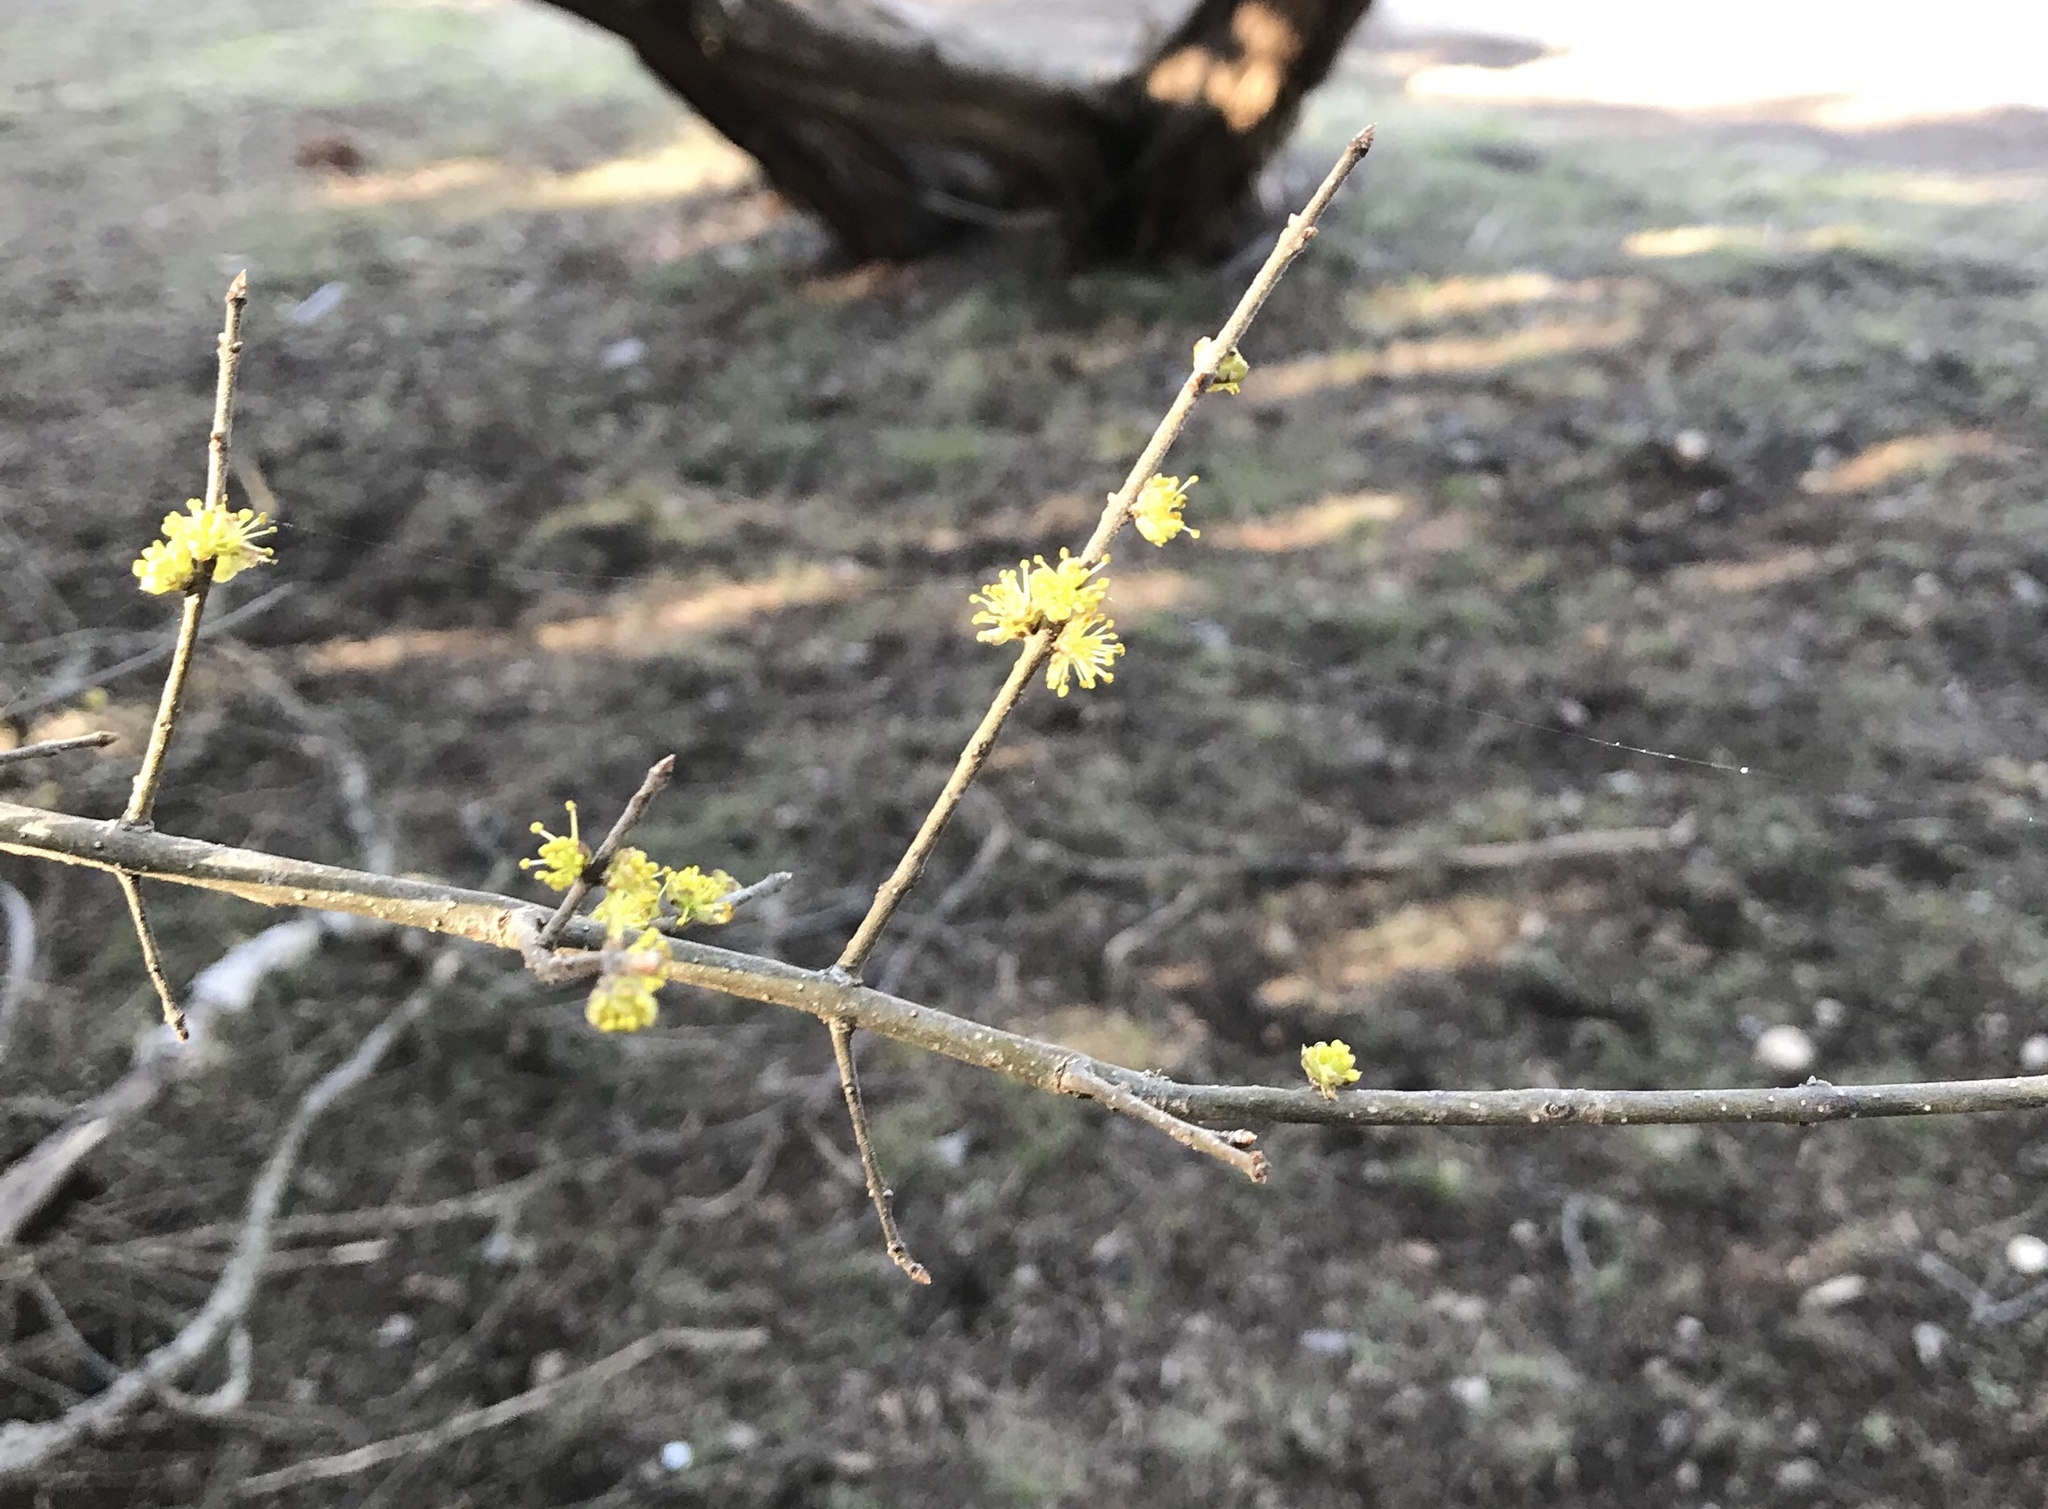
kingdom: Plantae
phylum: Tracheophyta
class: Magnoliopsida
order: Lamiales
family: Oleaceae
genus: Forestiera
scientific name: Forestiera pubescens
